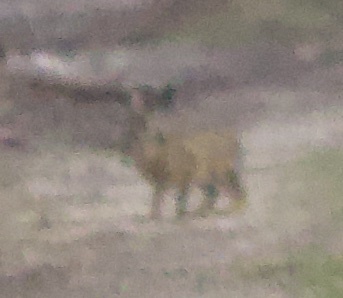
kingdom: Animalia
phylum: Chordata
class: Mammalia
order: Lagomorpha
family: Leporidae
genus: Lepus
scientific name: Lepus europaeus
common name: European hare
